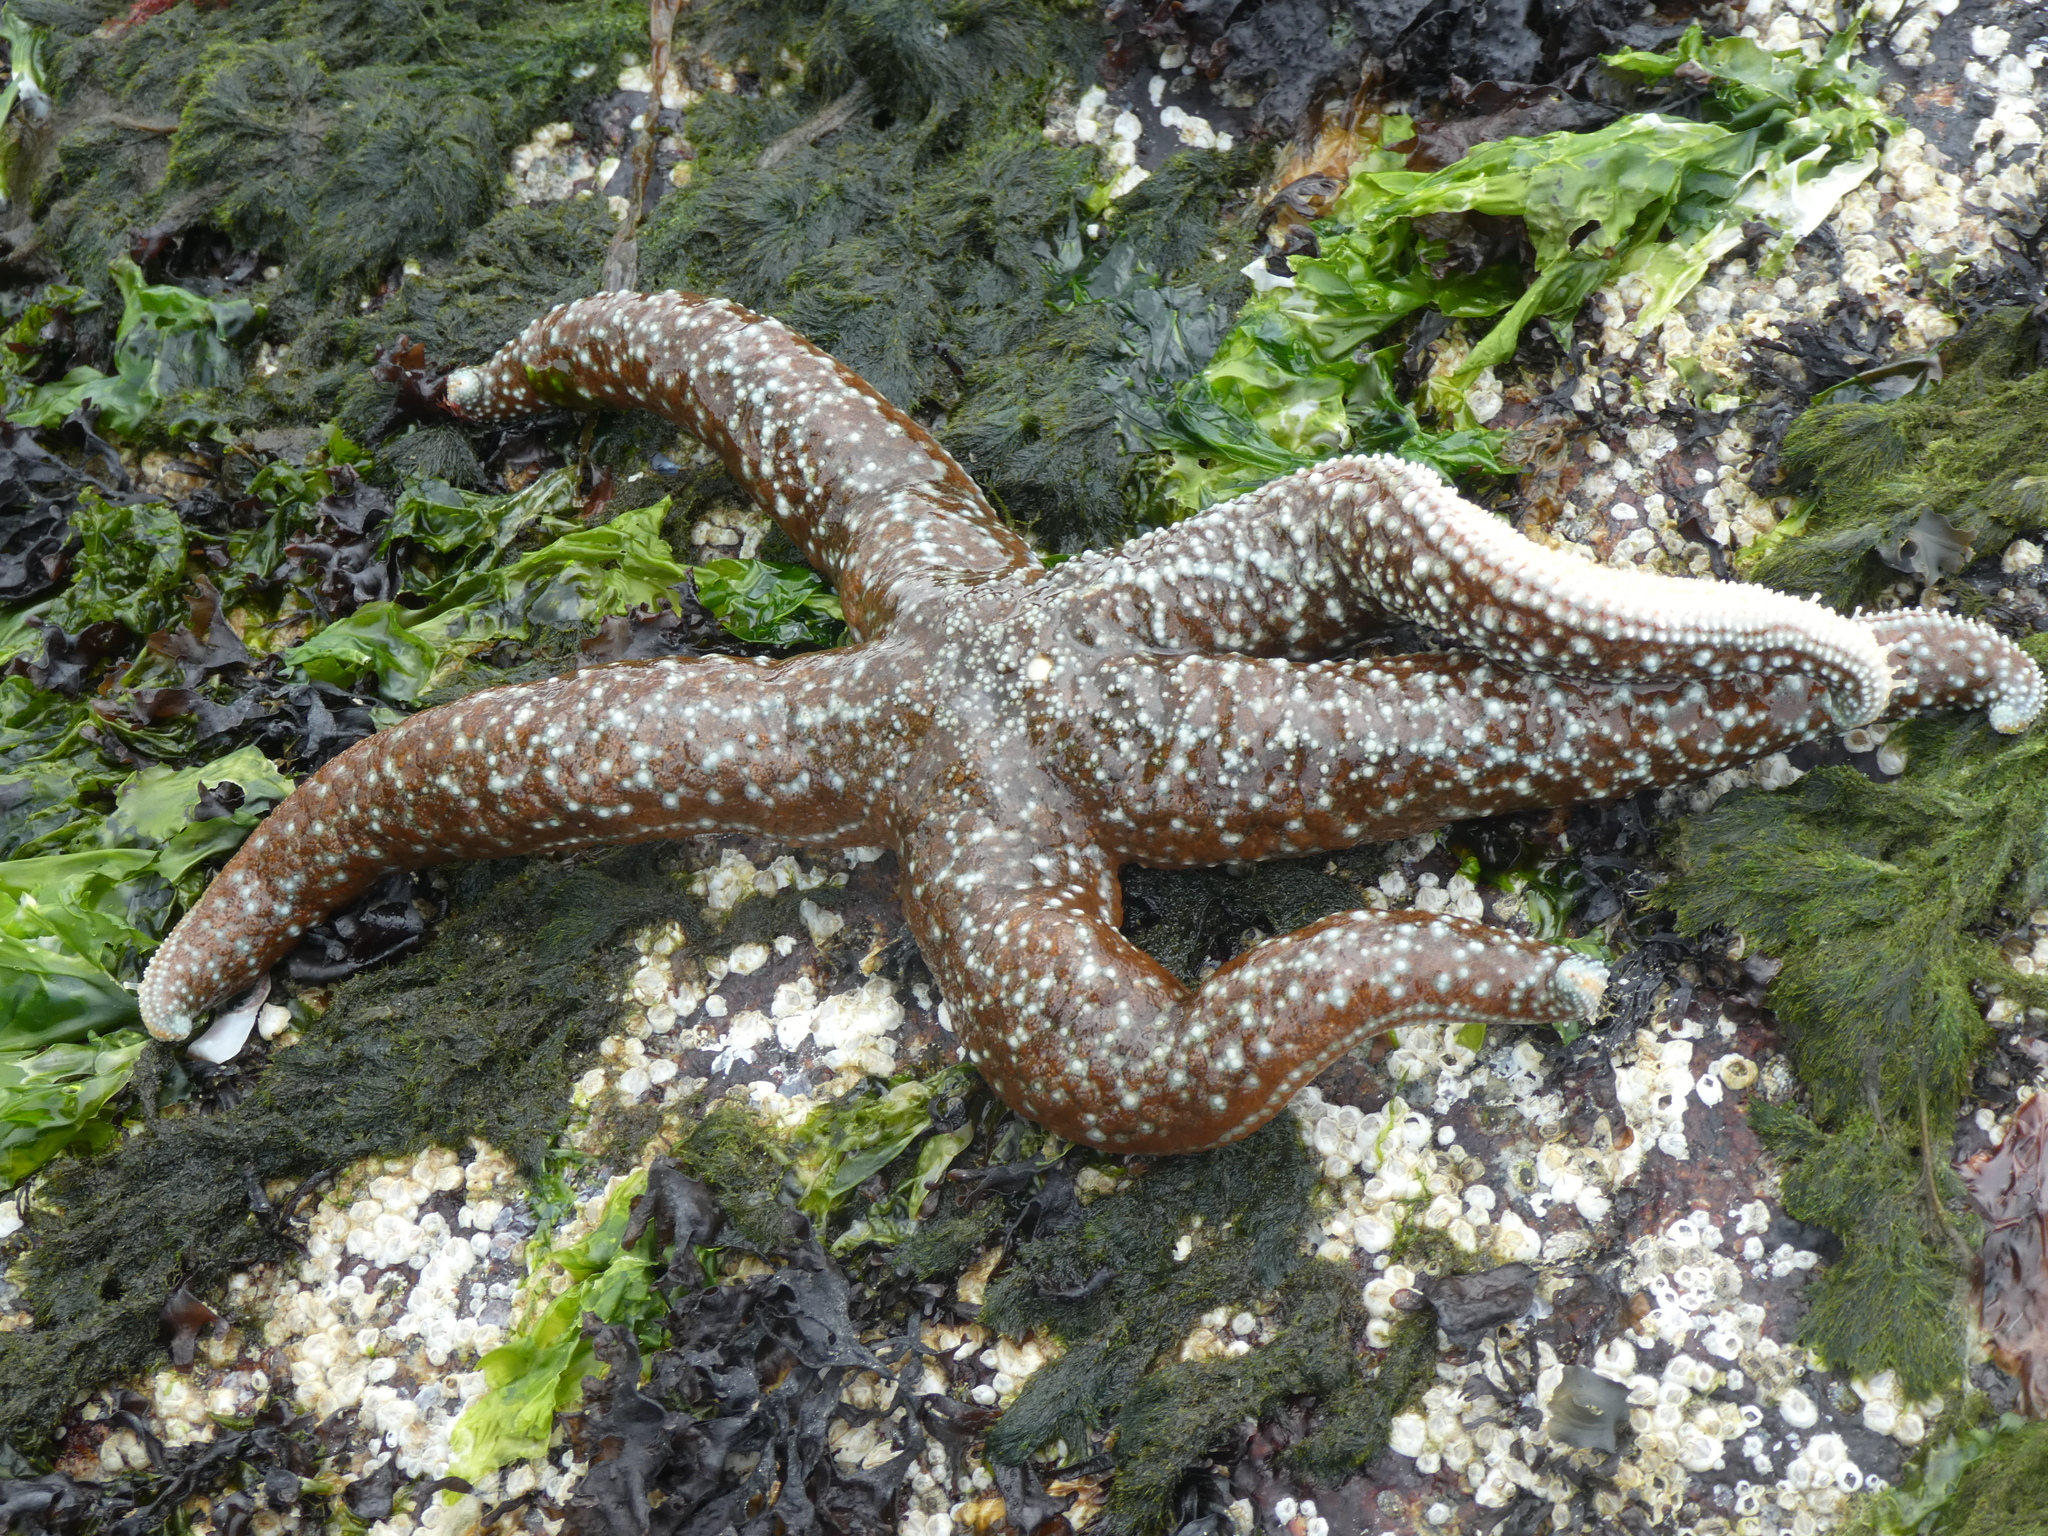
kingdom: Animalia
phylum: Echinodermata
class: Asteroidea
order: Forcipulatida
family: Asteriidae
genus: Evasterias
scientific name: Evasterias troschelii
